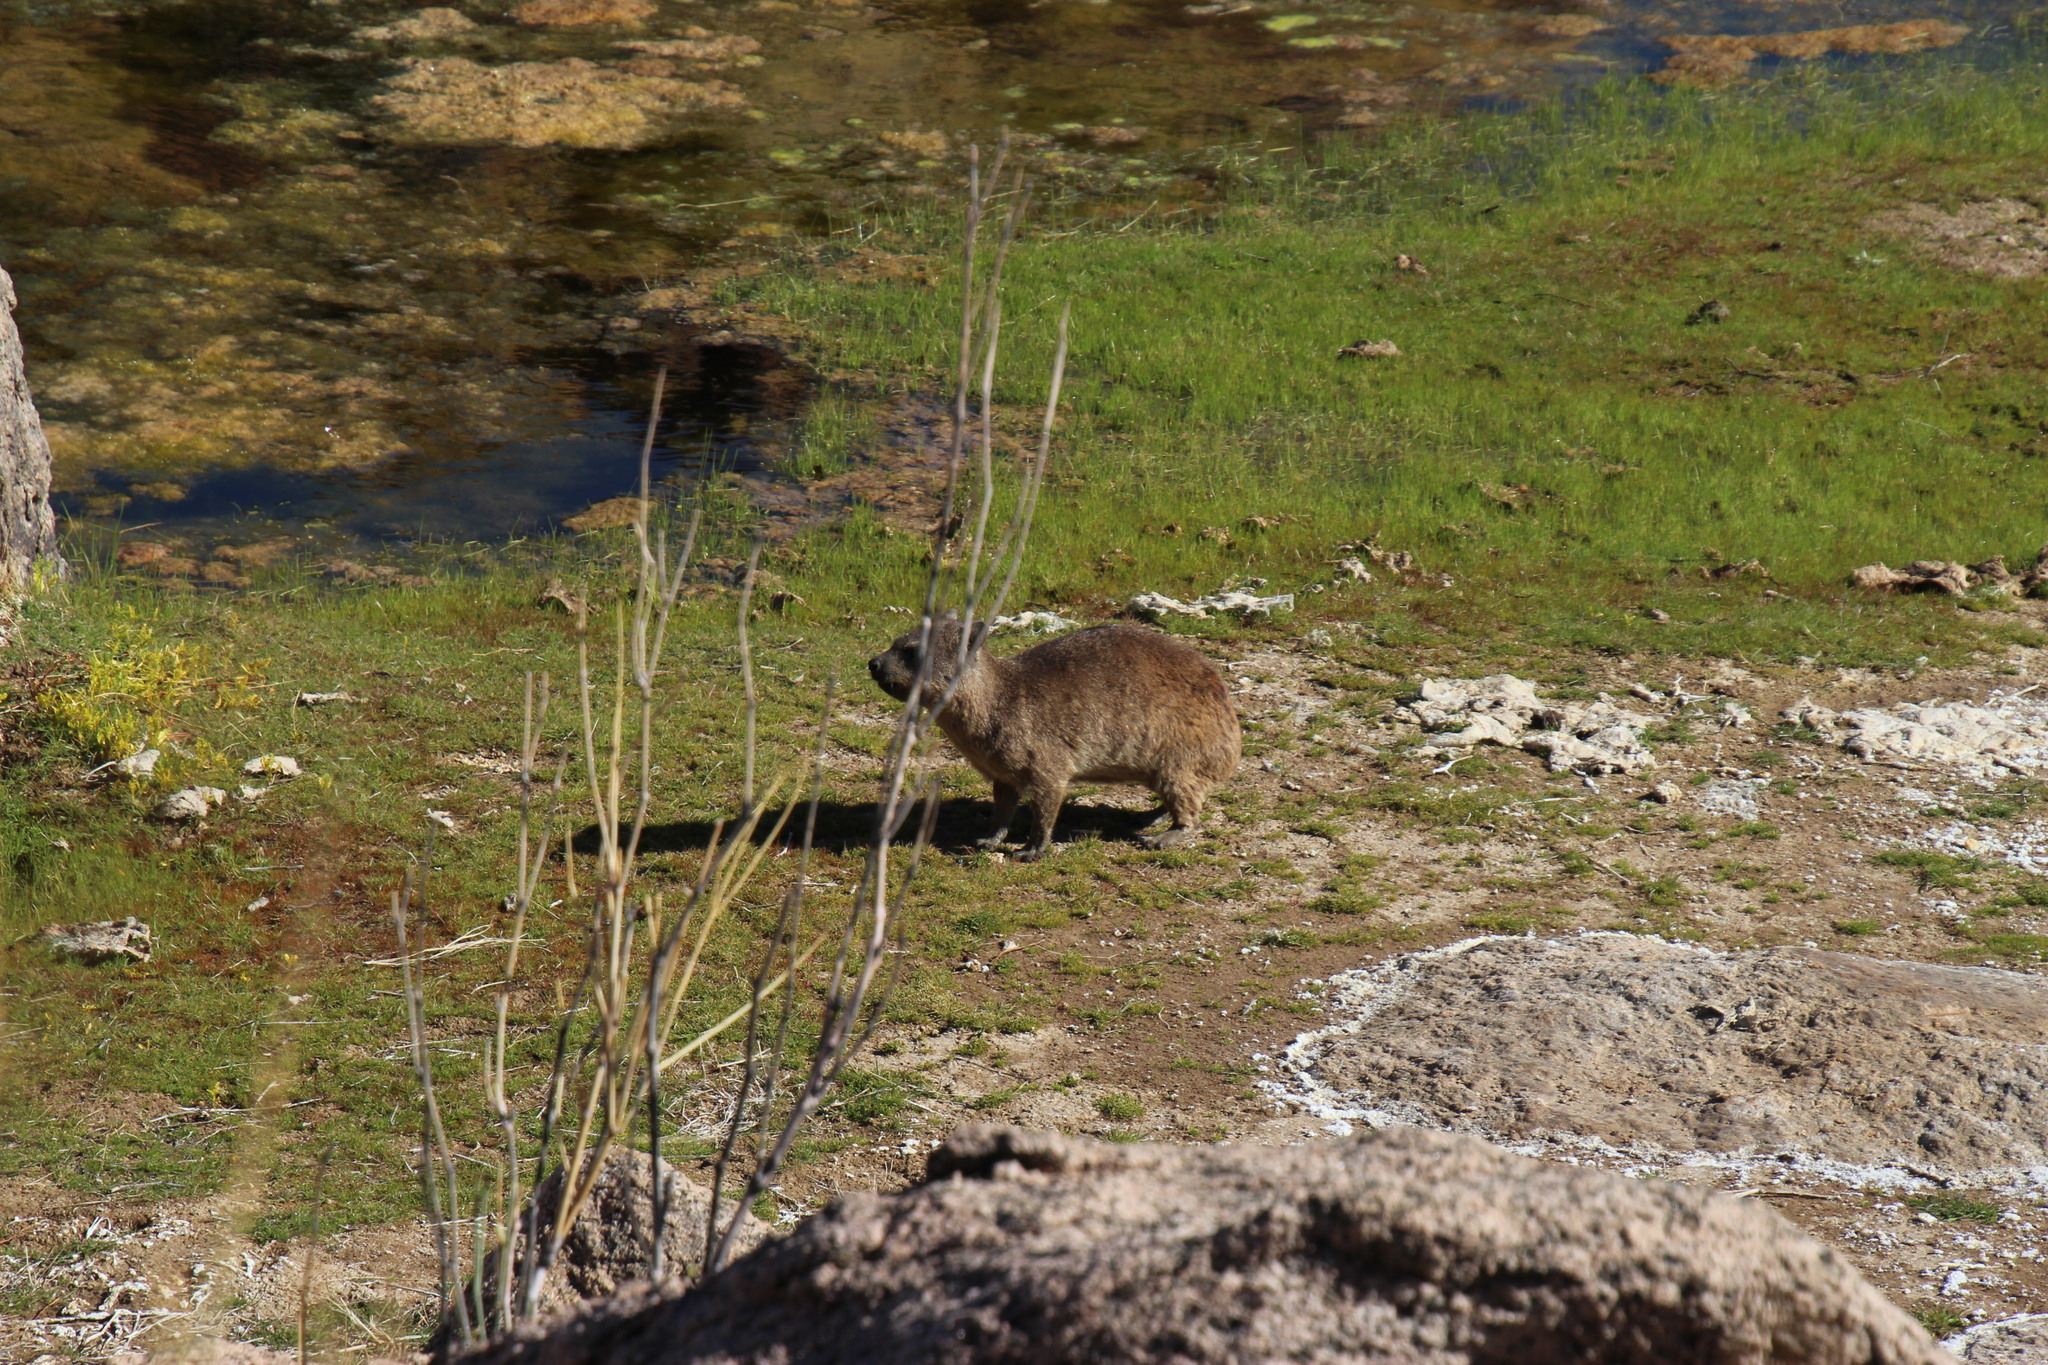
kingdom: Animalia
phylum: Chordata
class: Mammalia
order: Hyracoidea
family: Procaviidae
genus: Procavia
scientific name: Procavia capensis
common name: Rock hyrax
